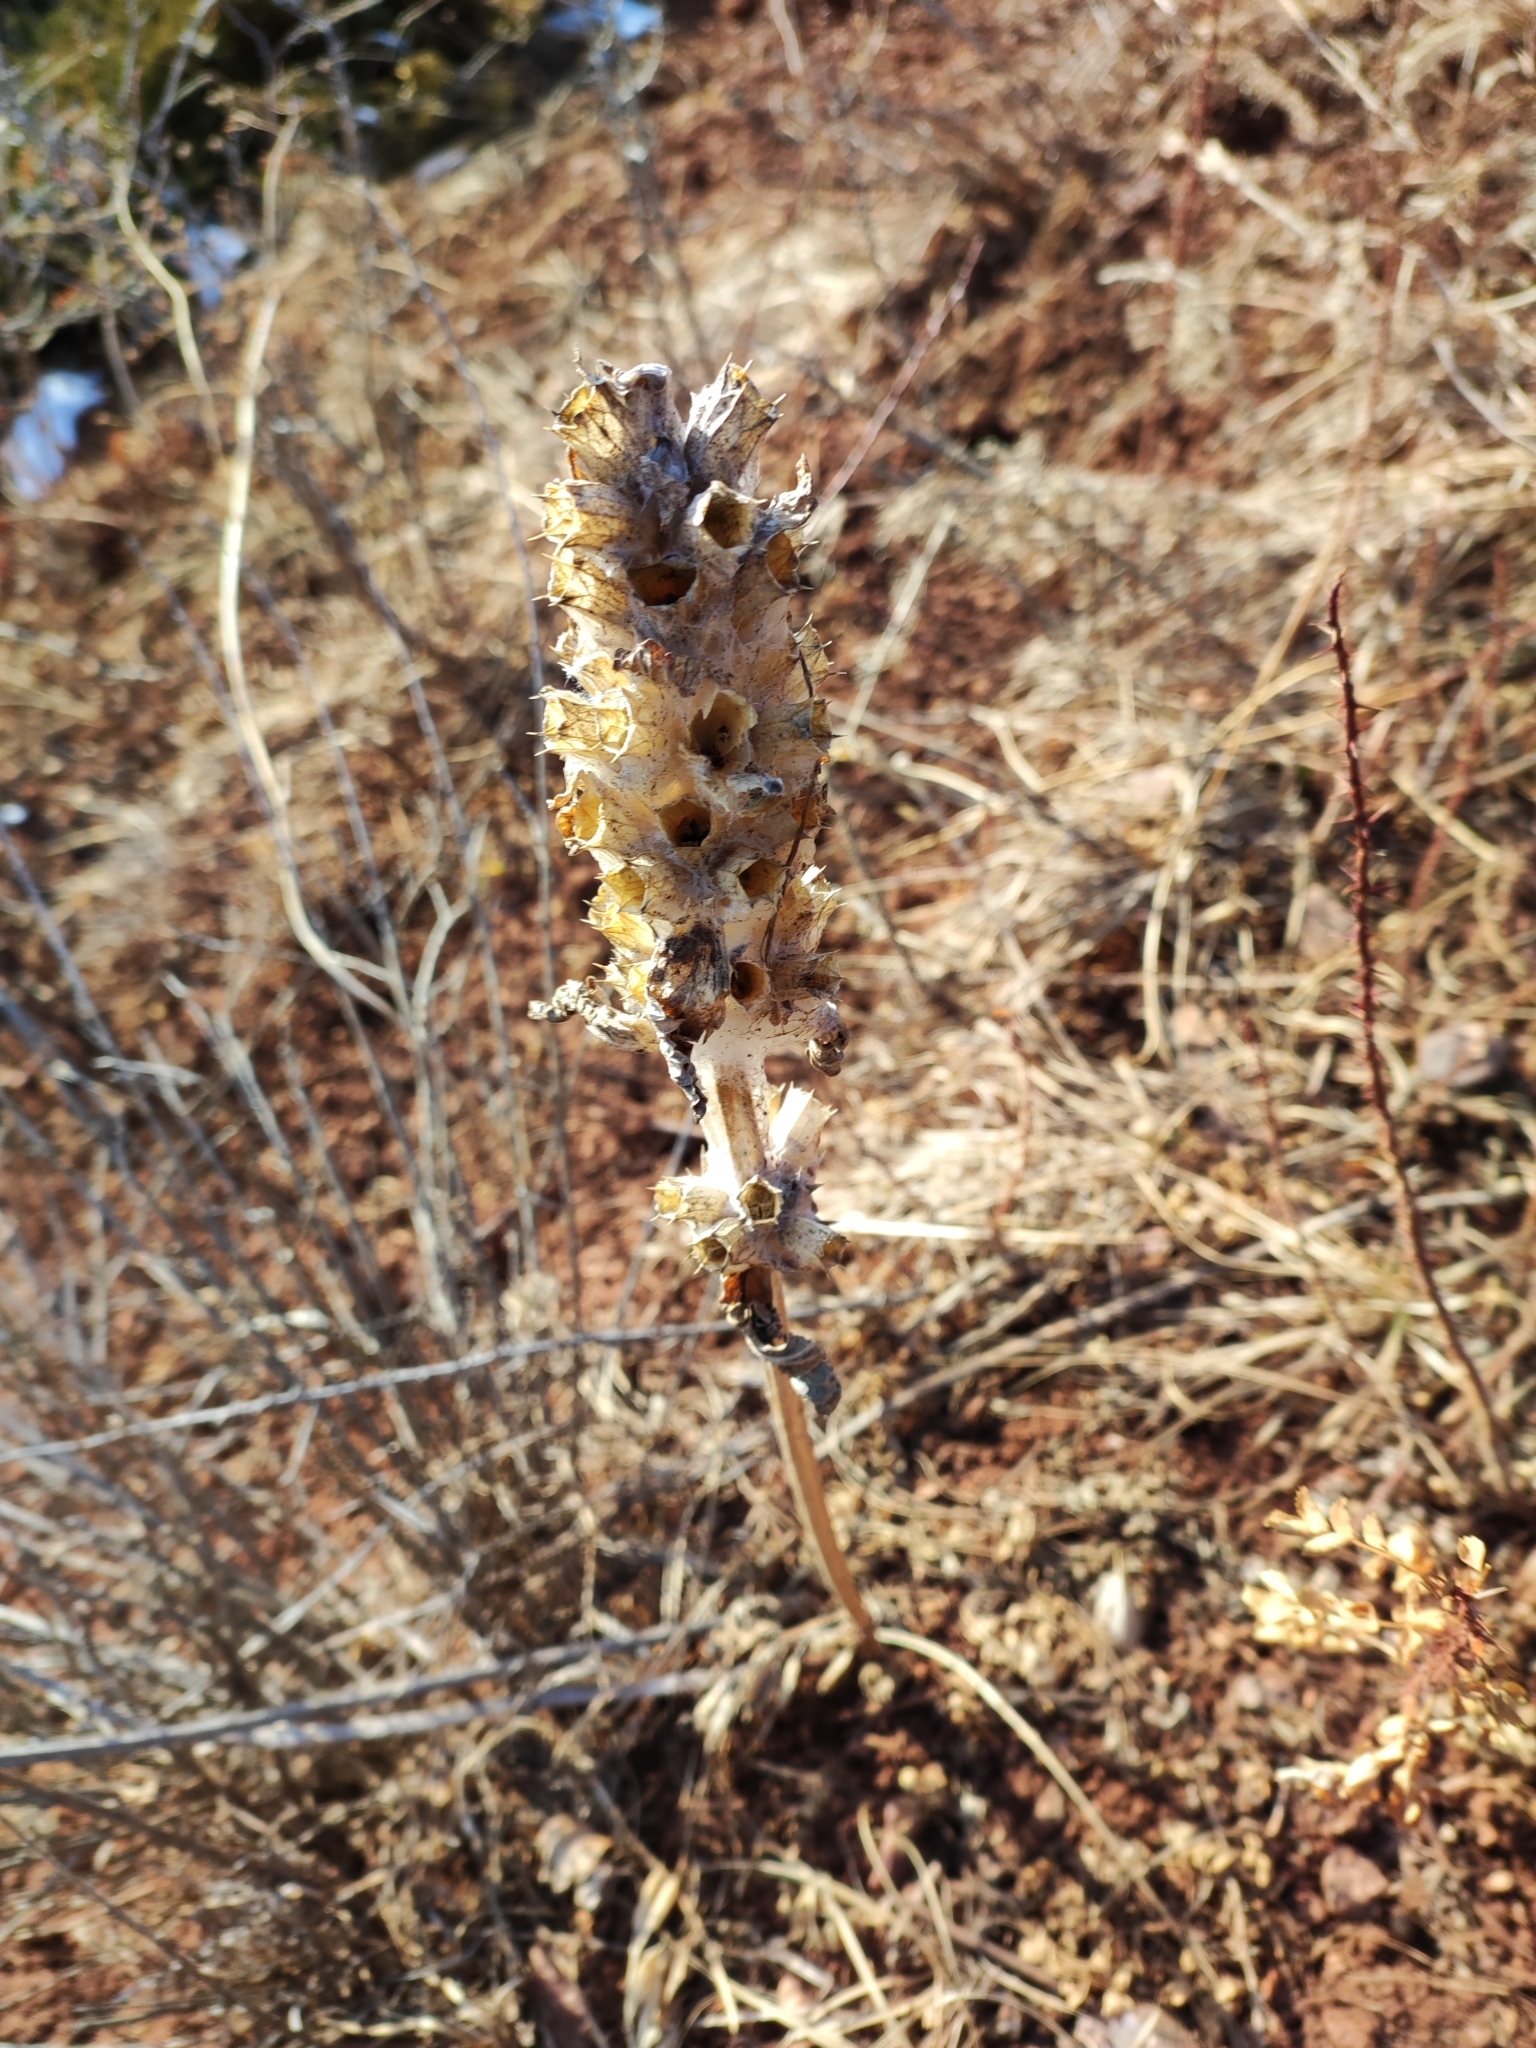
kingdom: Plantae
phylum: Tracheophyta
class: Magnoliopsida
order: Lamiales
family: Lamiaceae
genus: Phlomoides
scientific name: Phlomoides speciosa
